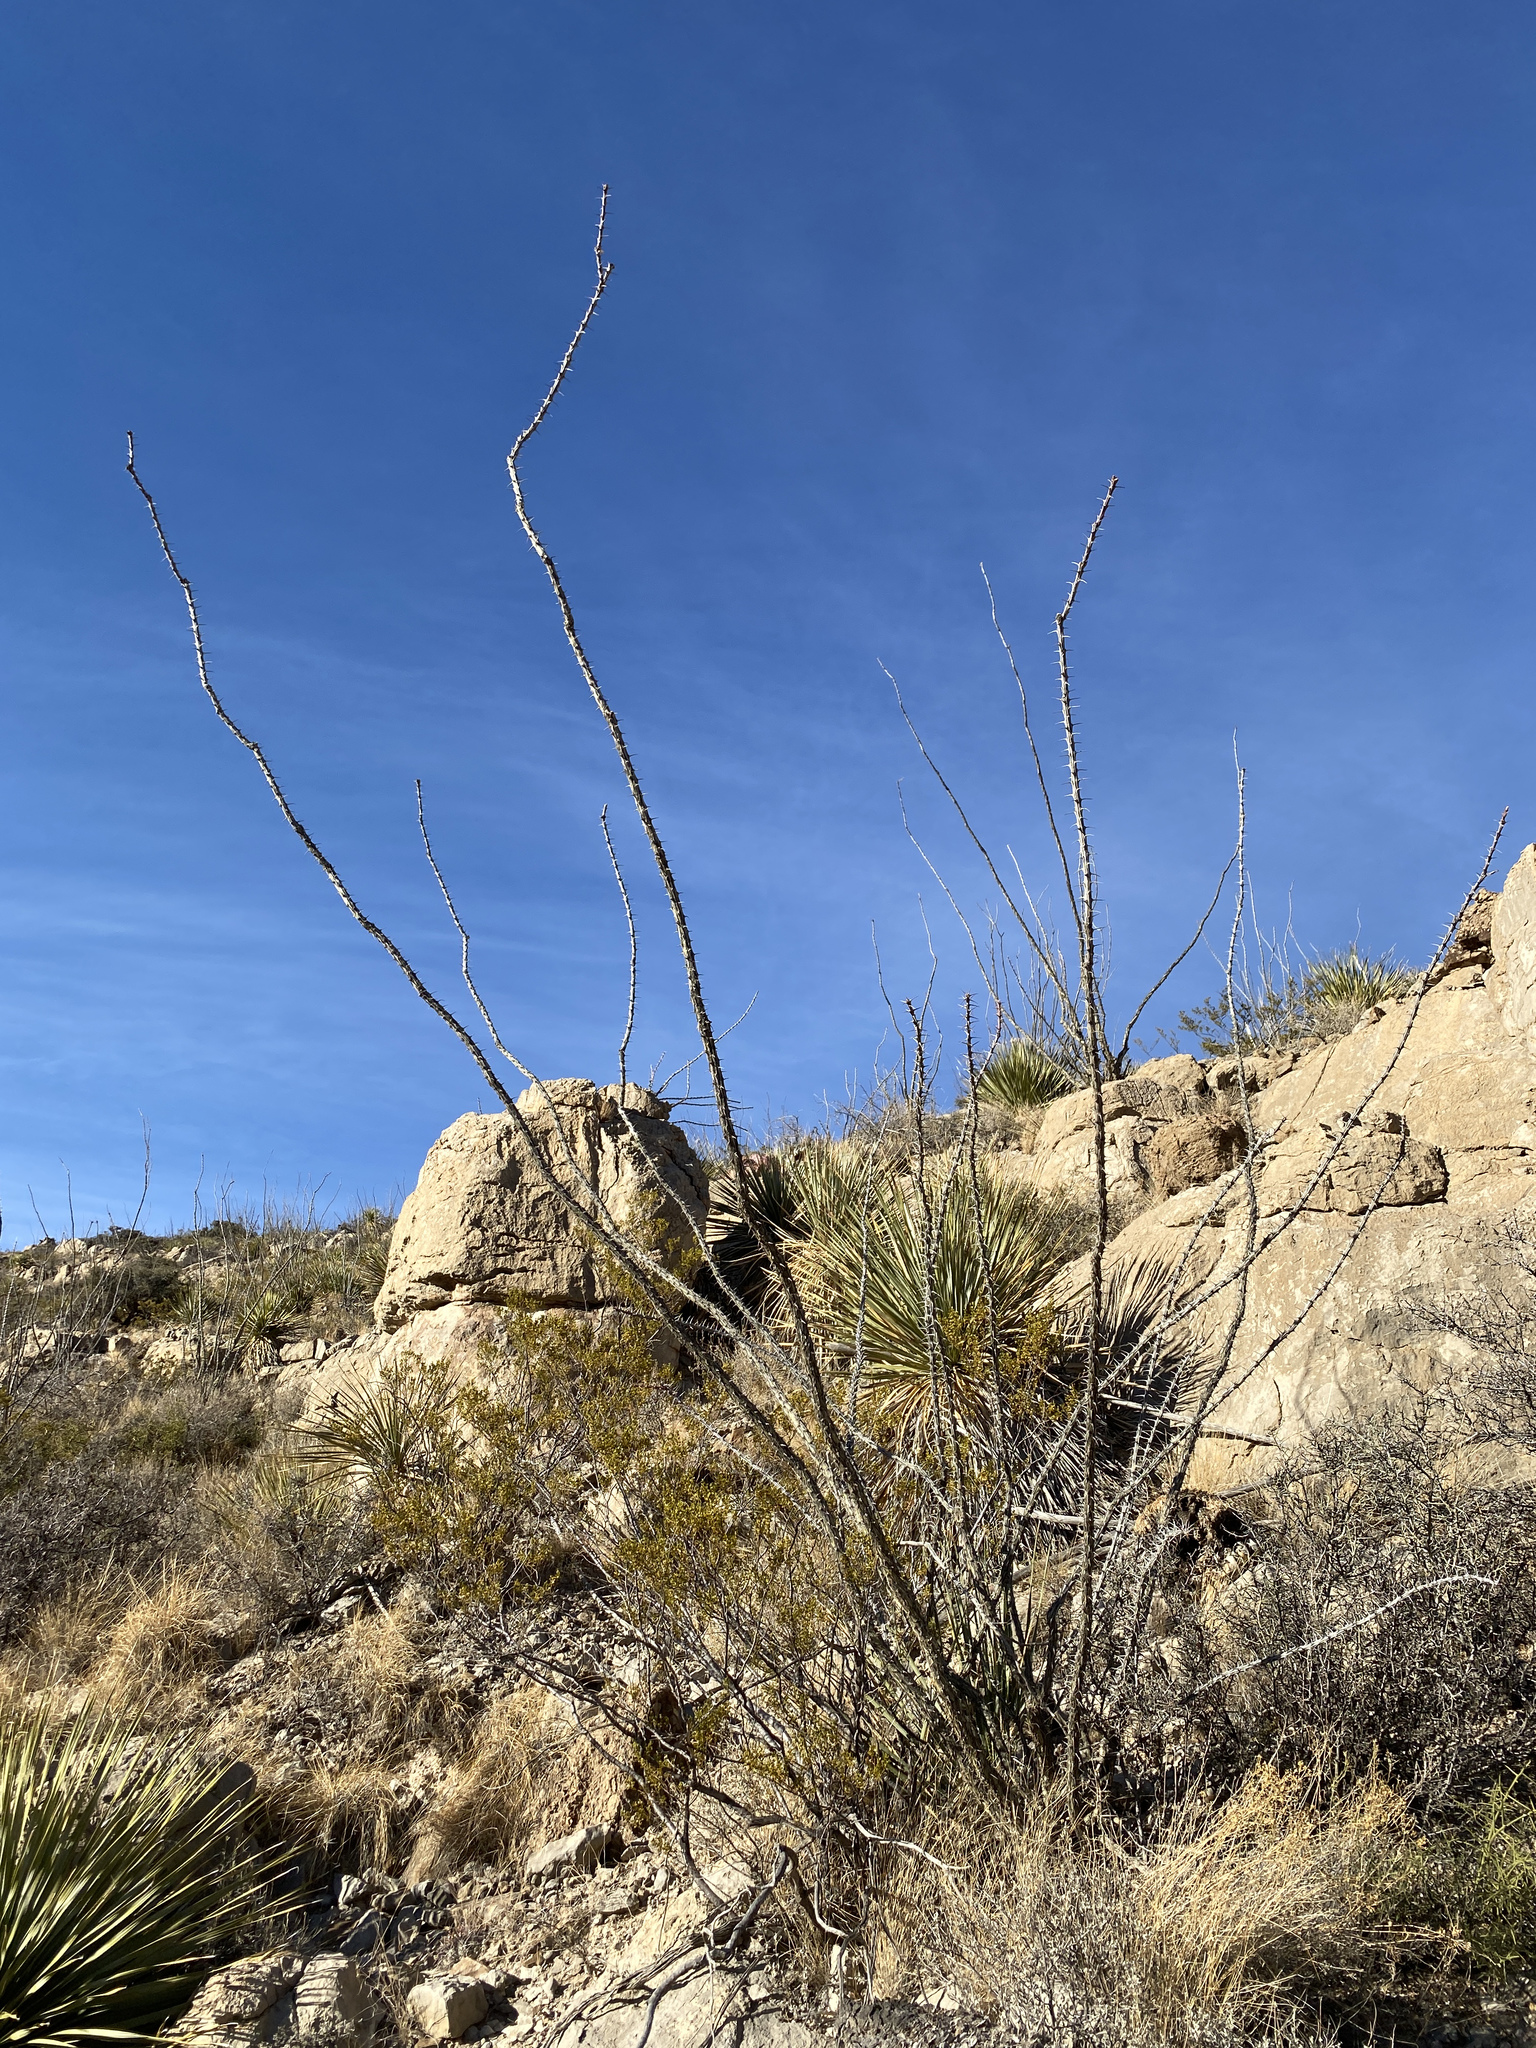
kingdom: Plantae
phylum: Tracheophyta
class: Magnoliopsida
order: Ericales
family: Fouquieriaceae
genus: Fouquieria
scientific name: Fouquieria splendens
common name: Vine-cactus
